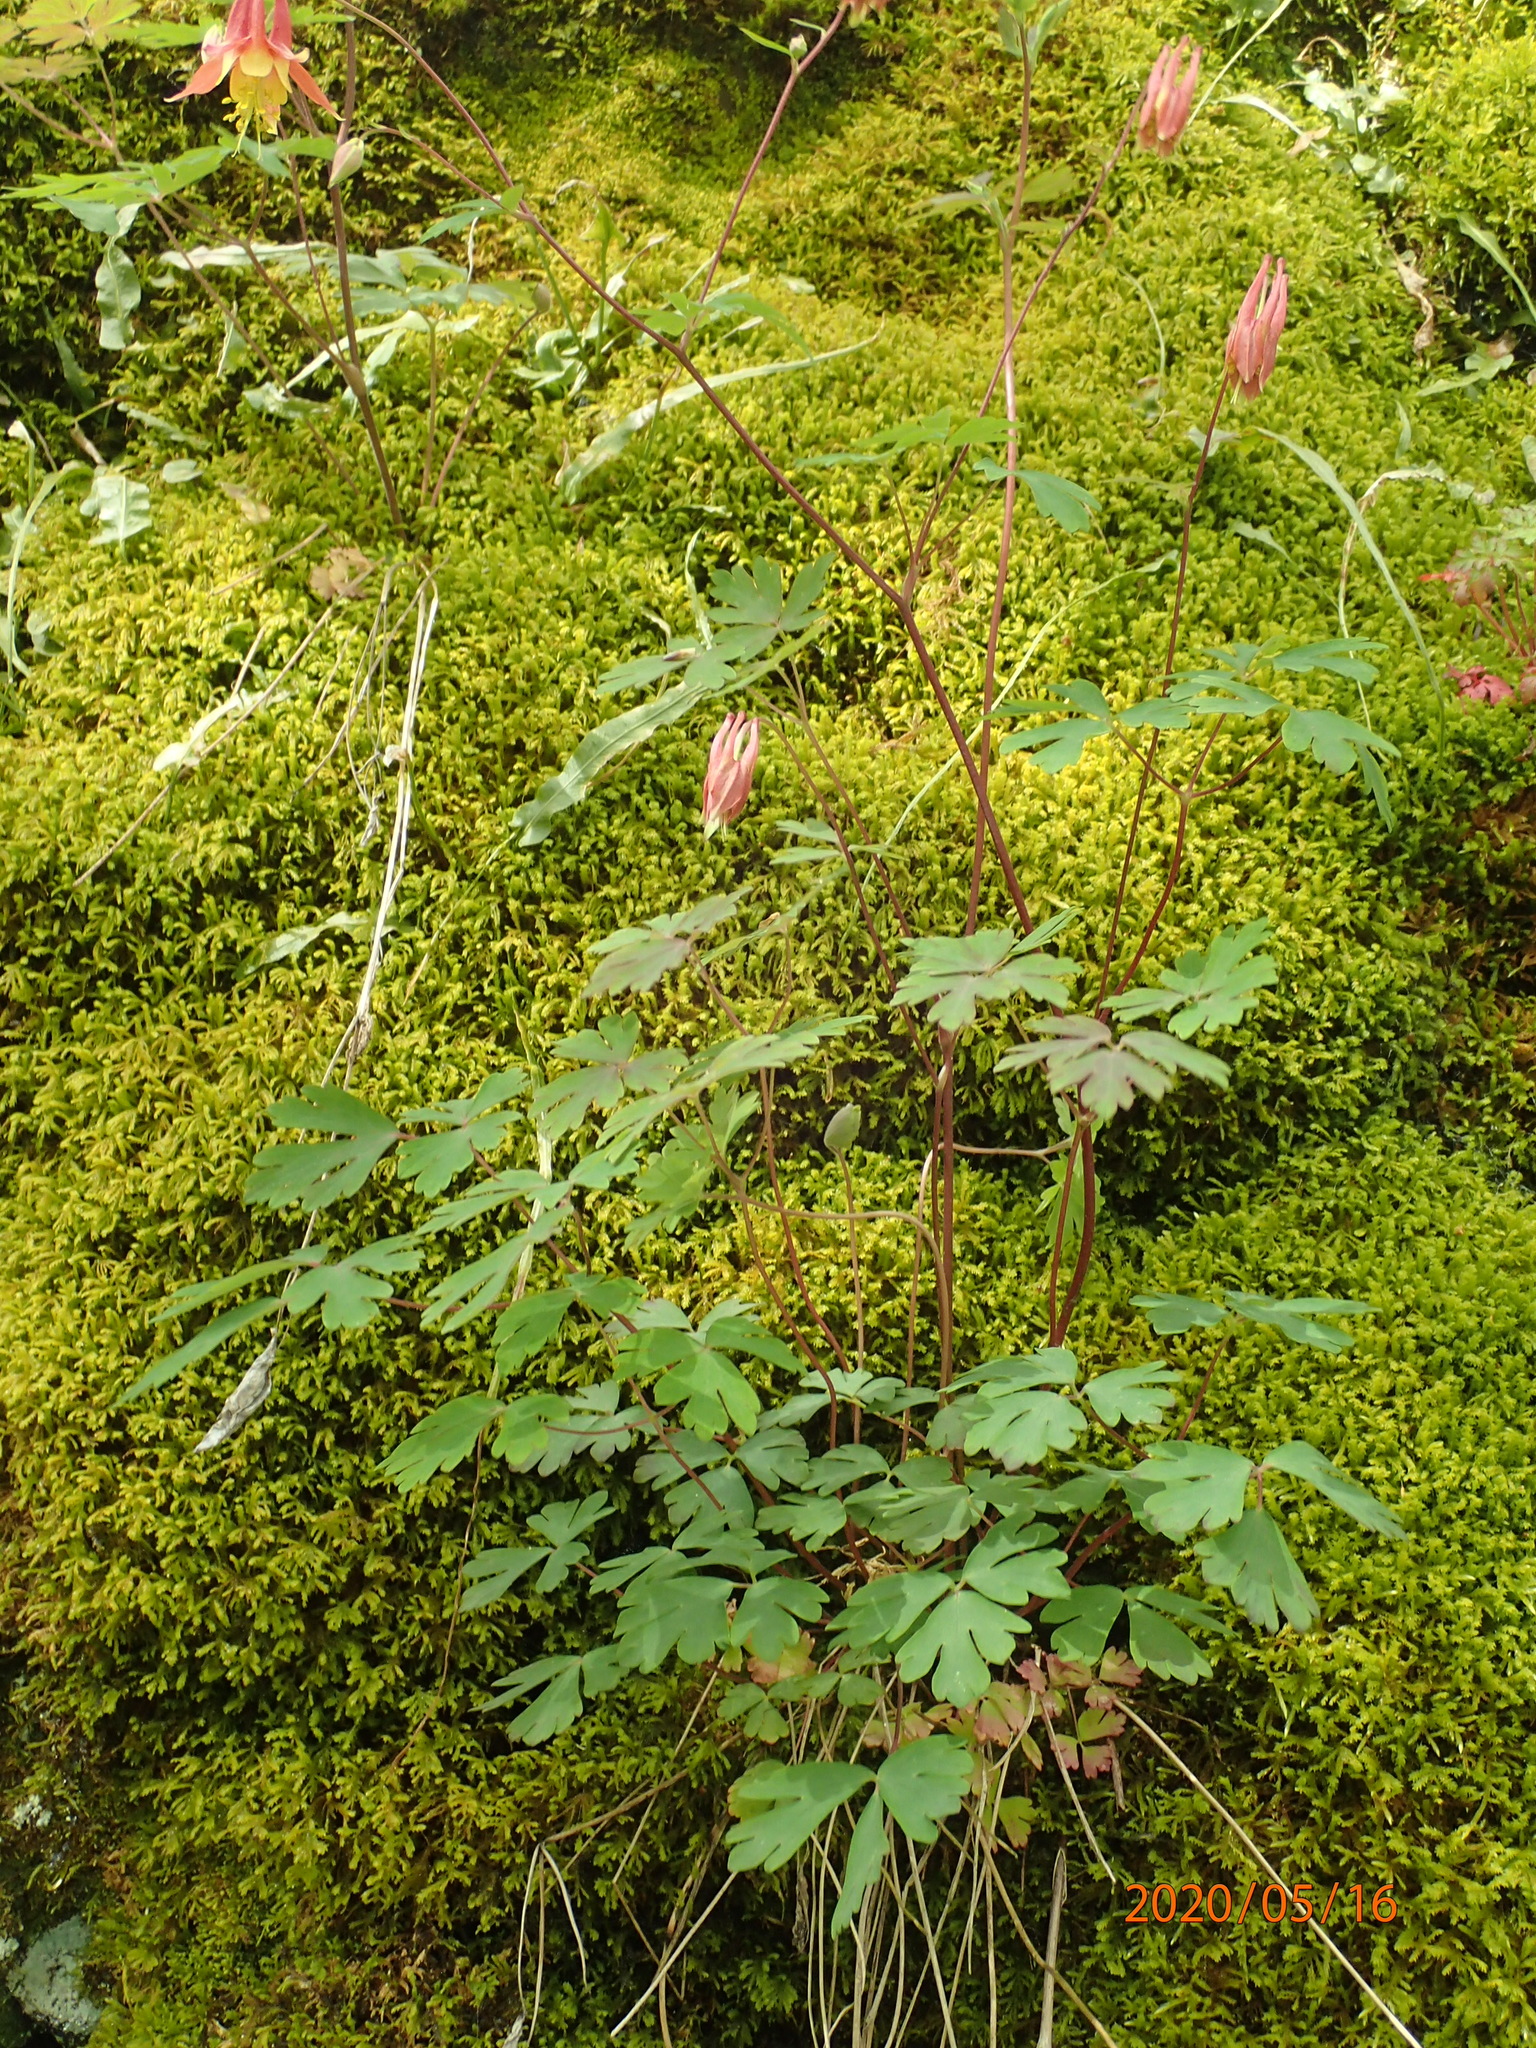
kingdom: Plantae
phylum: Tracheophyta
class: Magnoliopsida
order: Ranunculales
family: Ranunculaceae
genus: Aquilegia
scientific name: Aquilegia canadensis
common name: American columbine
